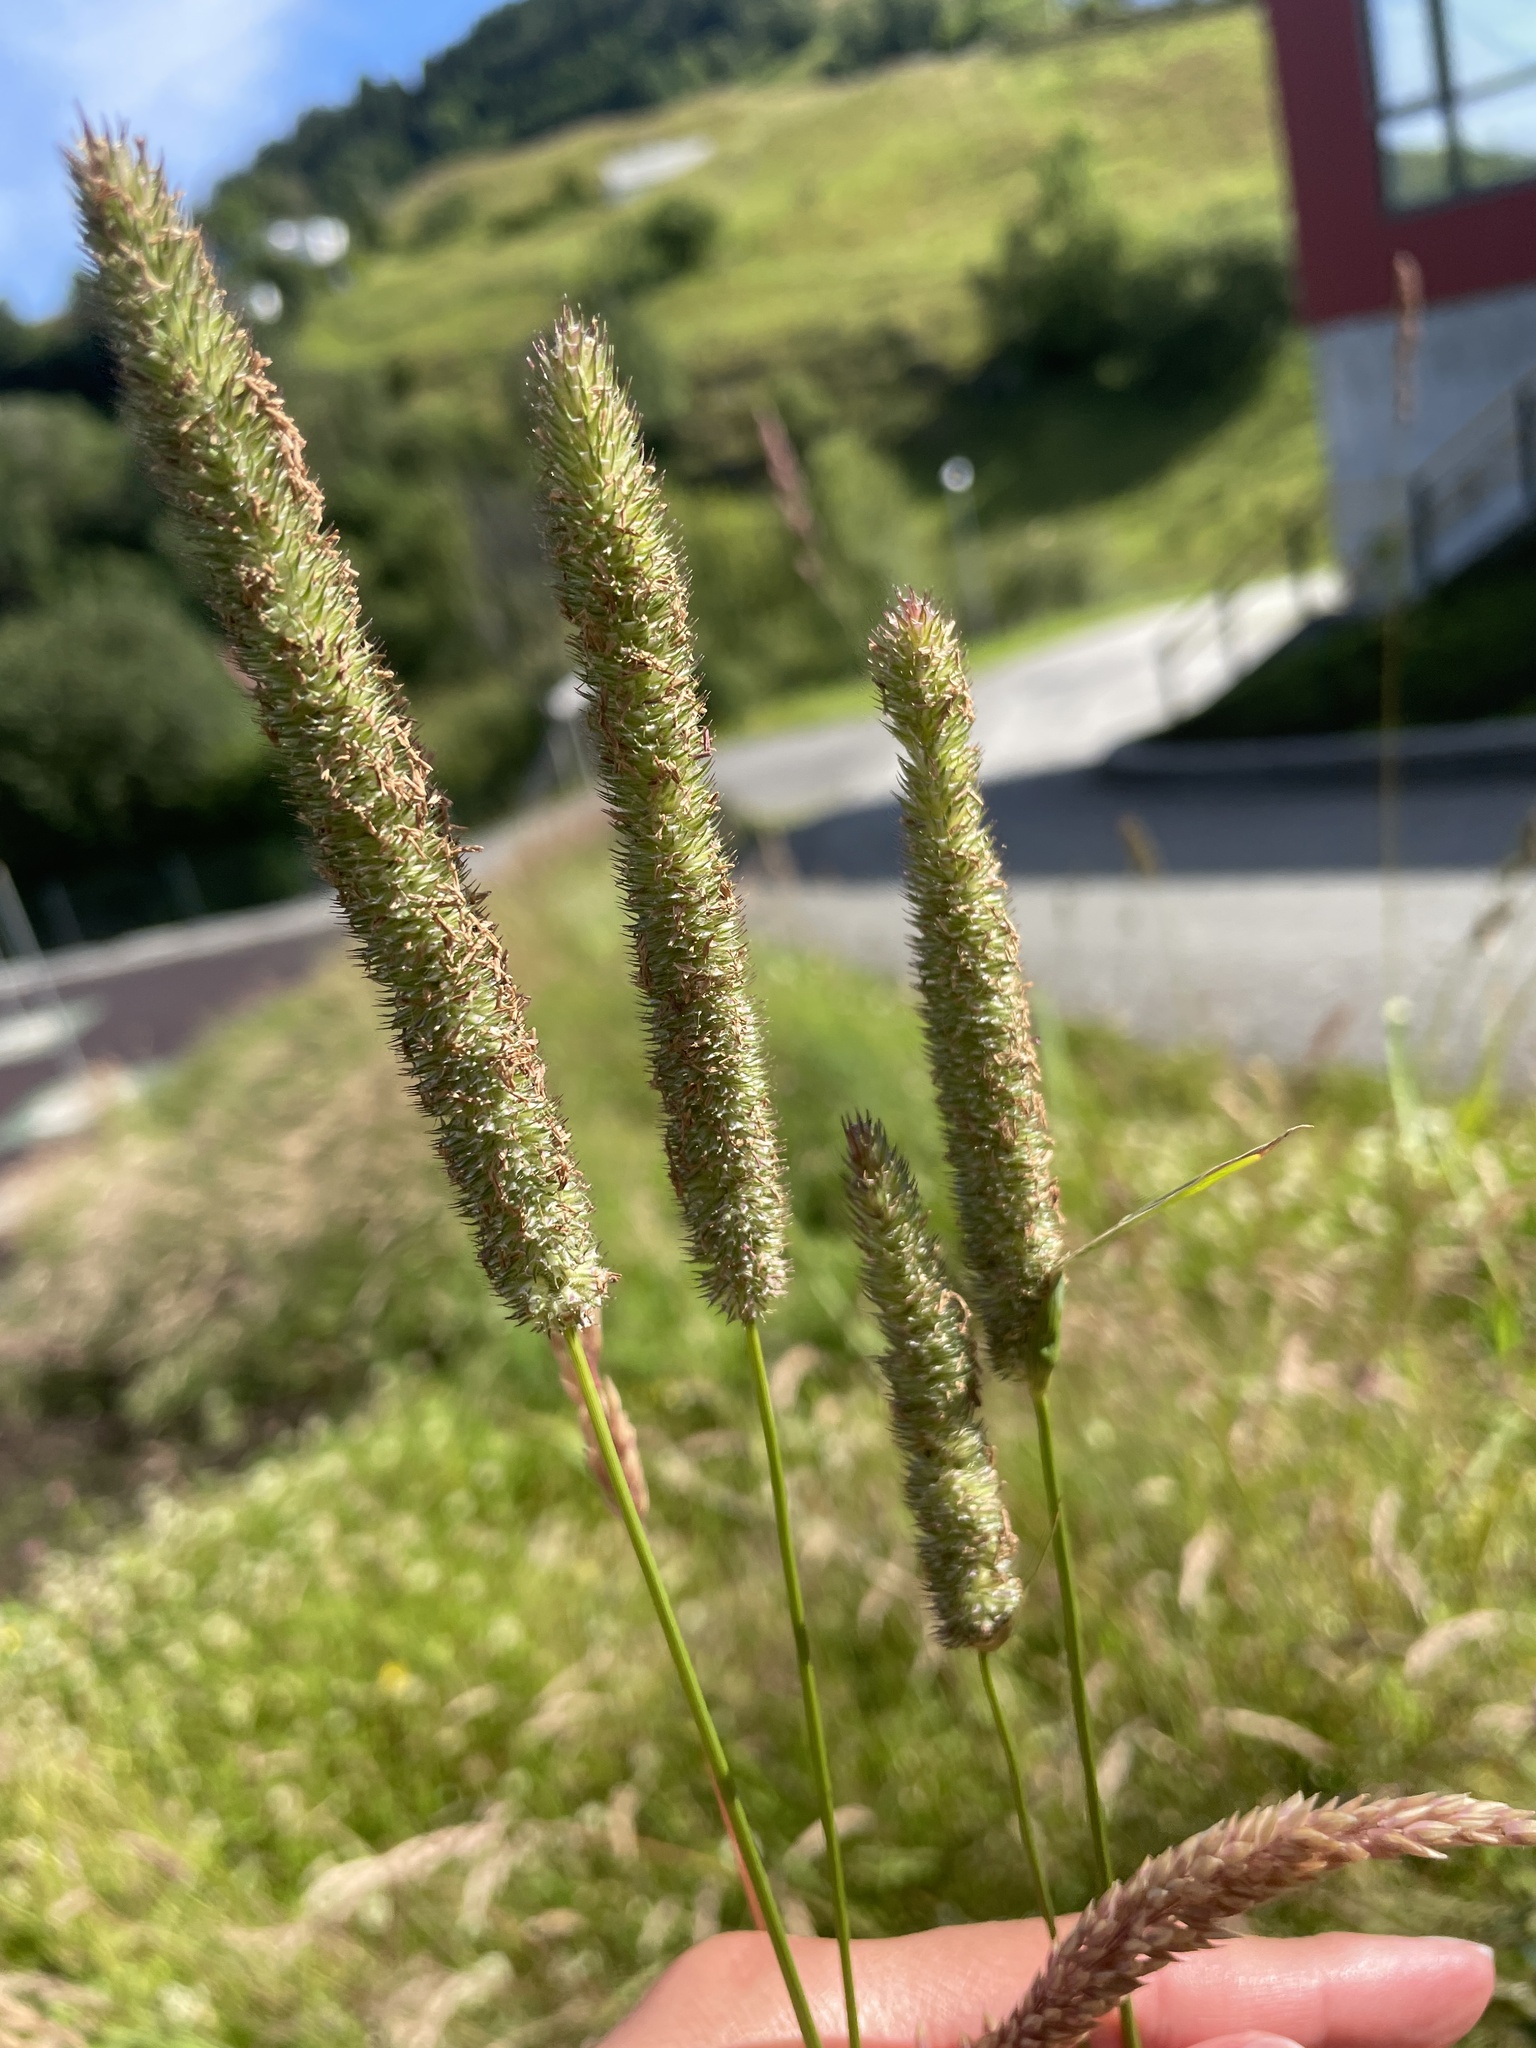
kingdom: Plantae
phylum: Tracheophyta
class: Liliopsida
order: Poales
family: Poaceae
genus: Phleum
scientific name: Phleum pratense
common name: Timothy grass
